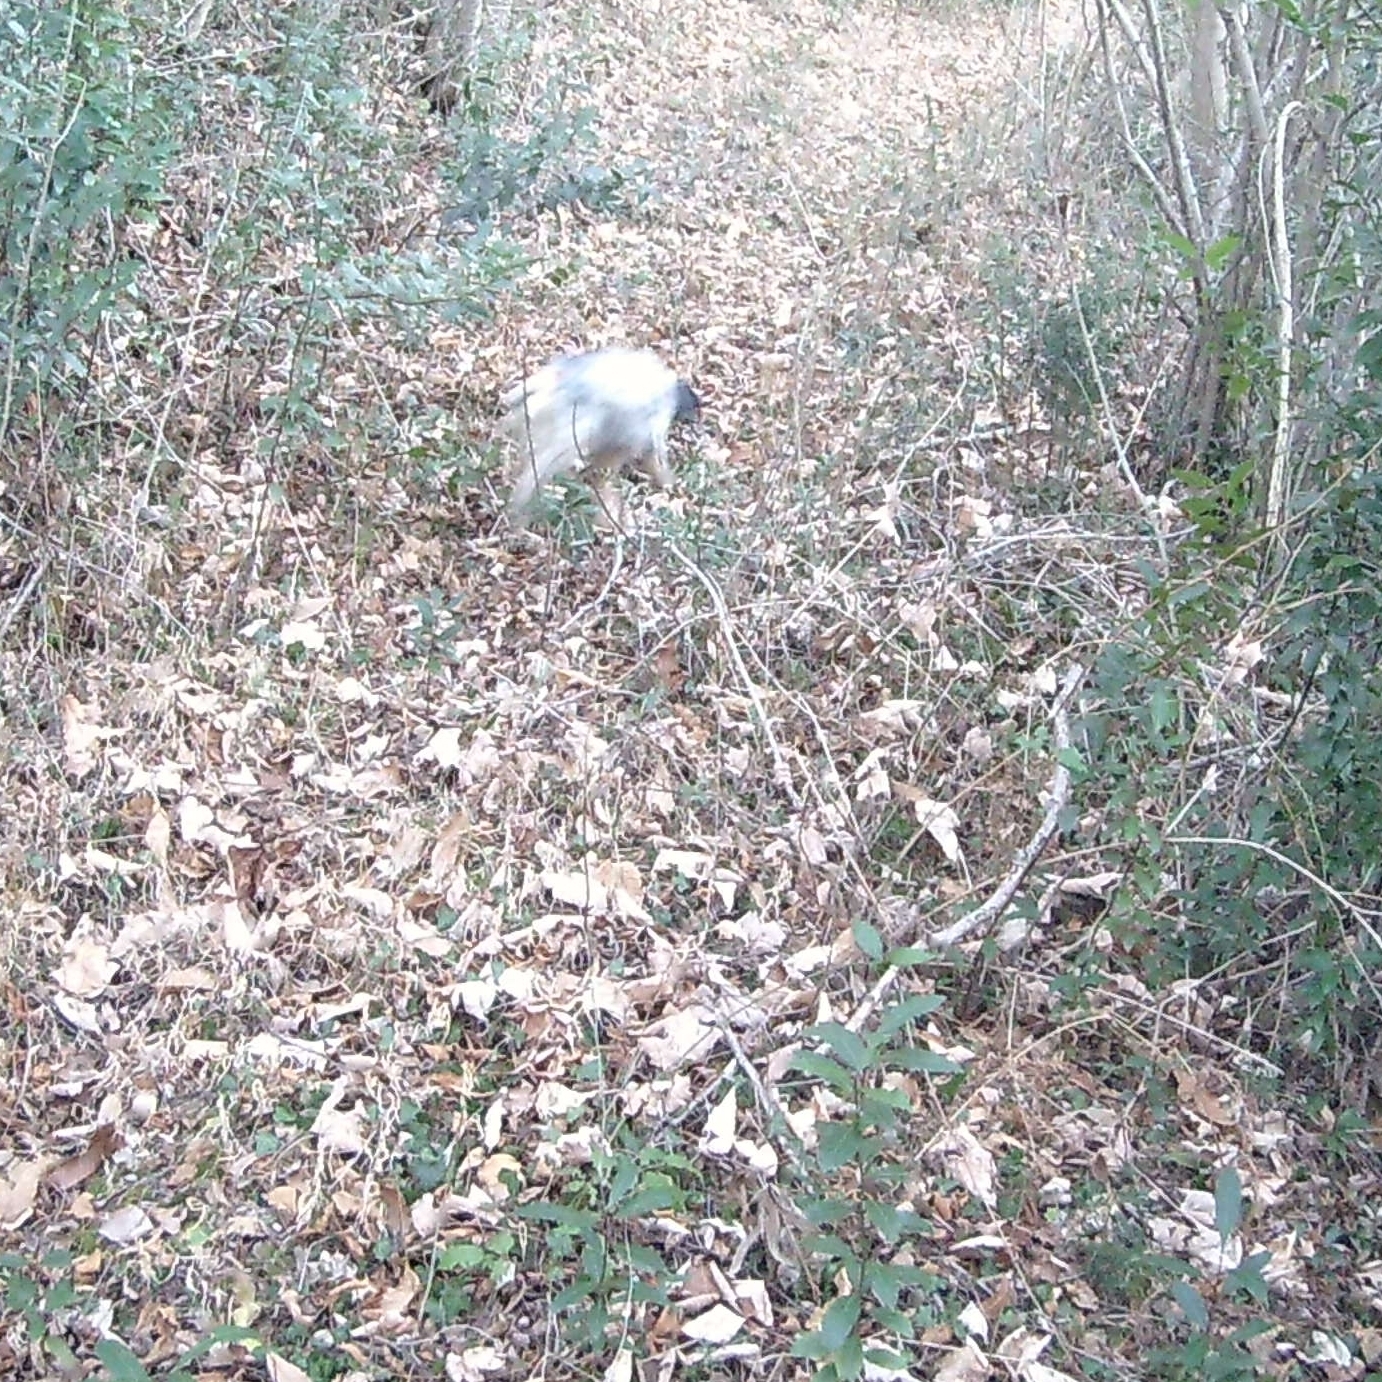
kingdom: Animalia
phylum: Chordata
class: Mammalia
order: Artiodactyla
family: Suidae
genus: Sus
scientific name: Sus scrofa
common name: Wild boar
